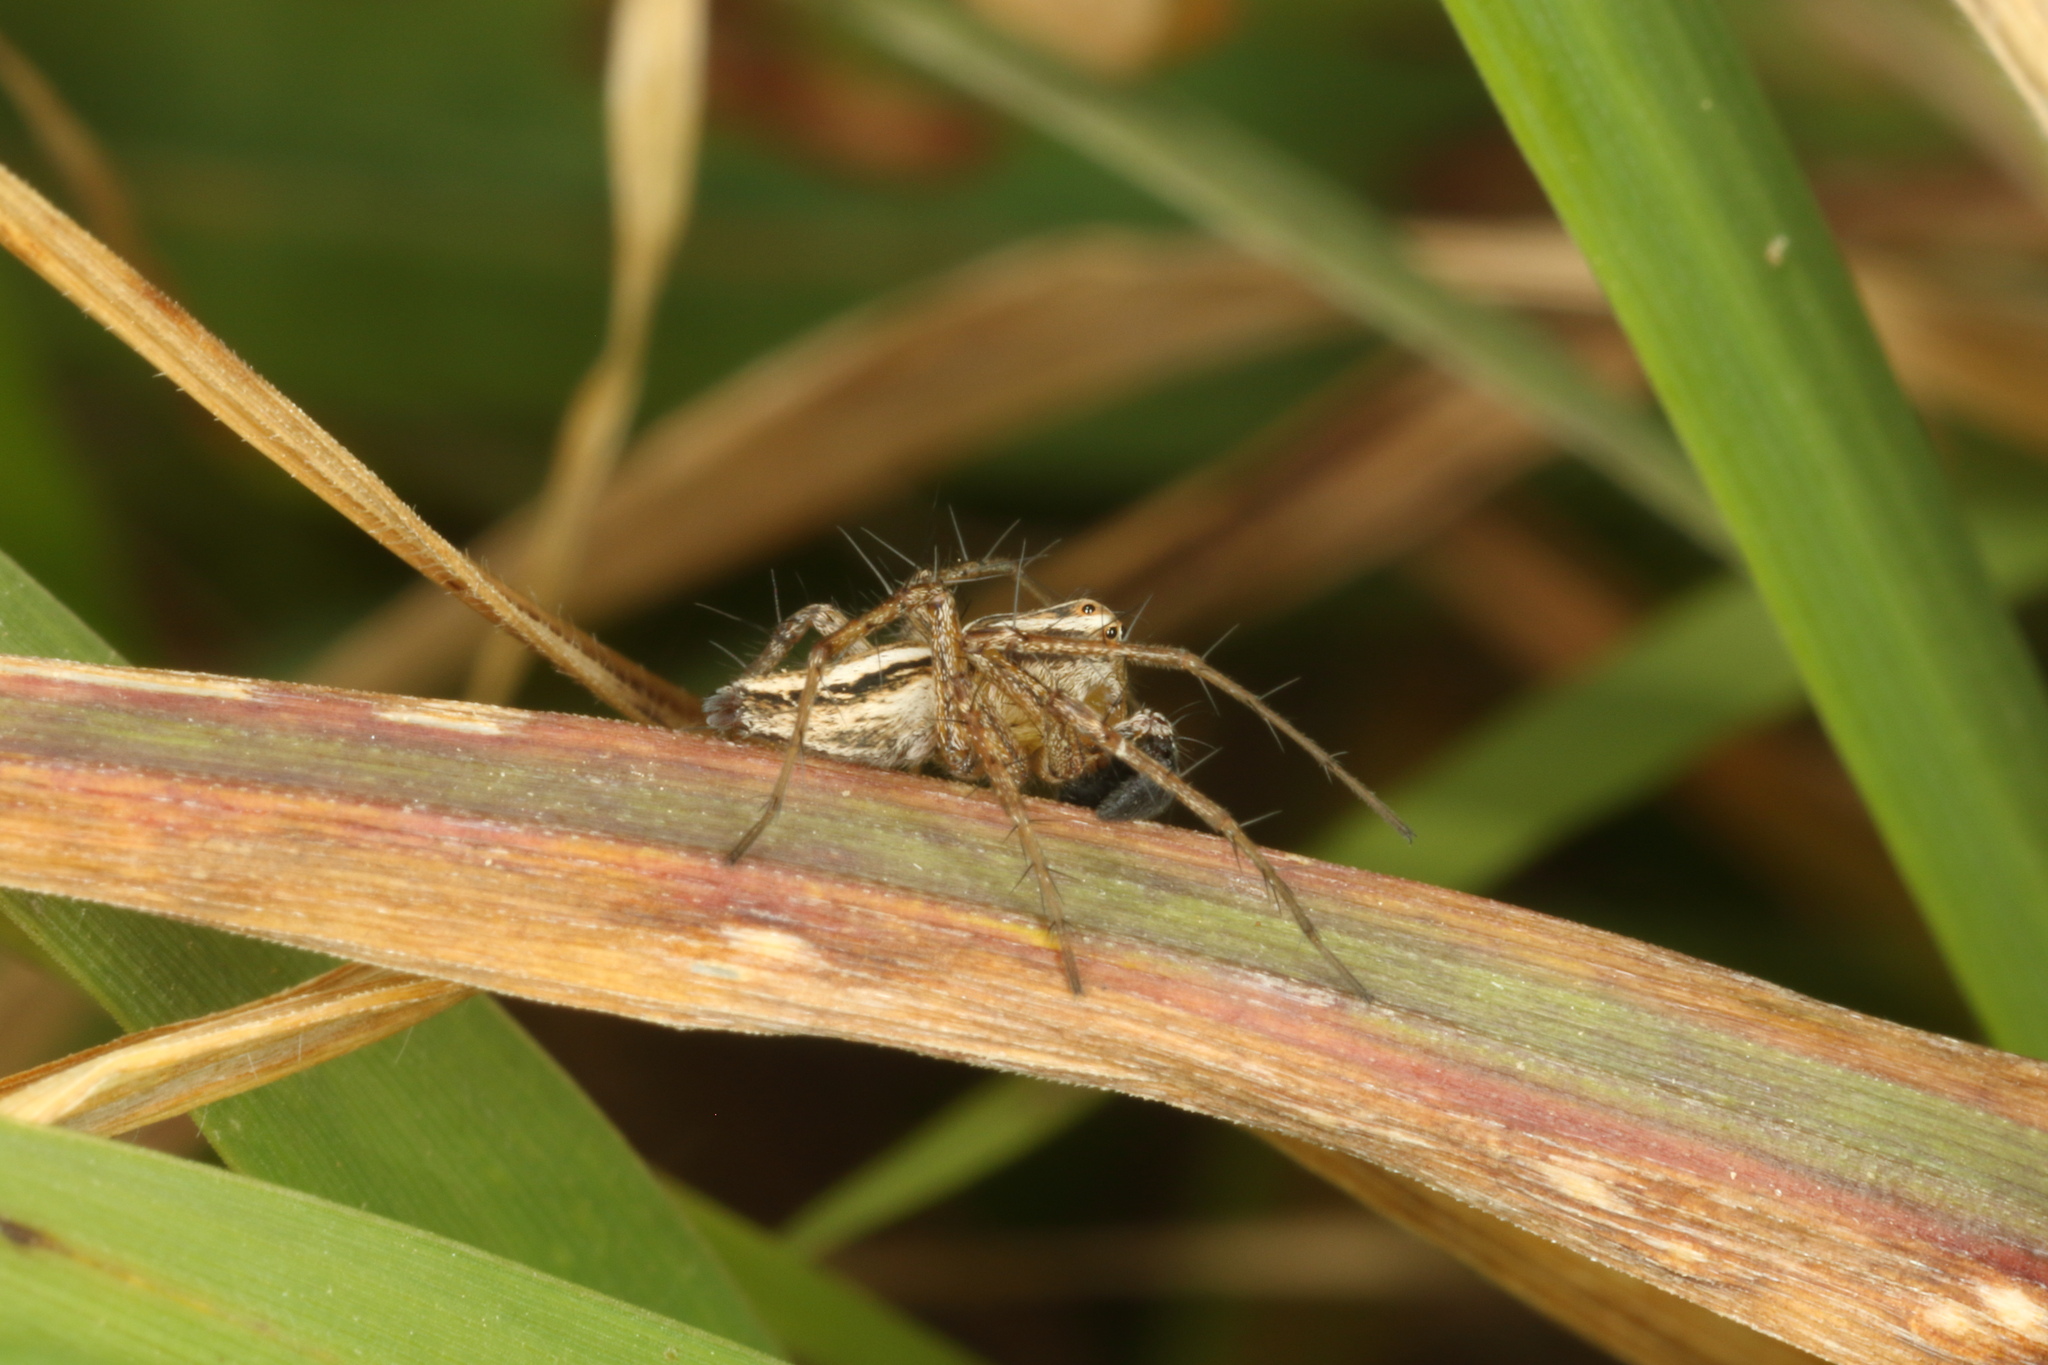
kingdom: Animalia
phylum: Arthropoda
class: Arachnida
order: Araneae
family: Oxyopidae
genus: Oxyopes
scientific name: Oxyopes gracilipes
